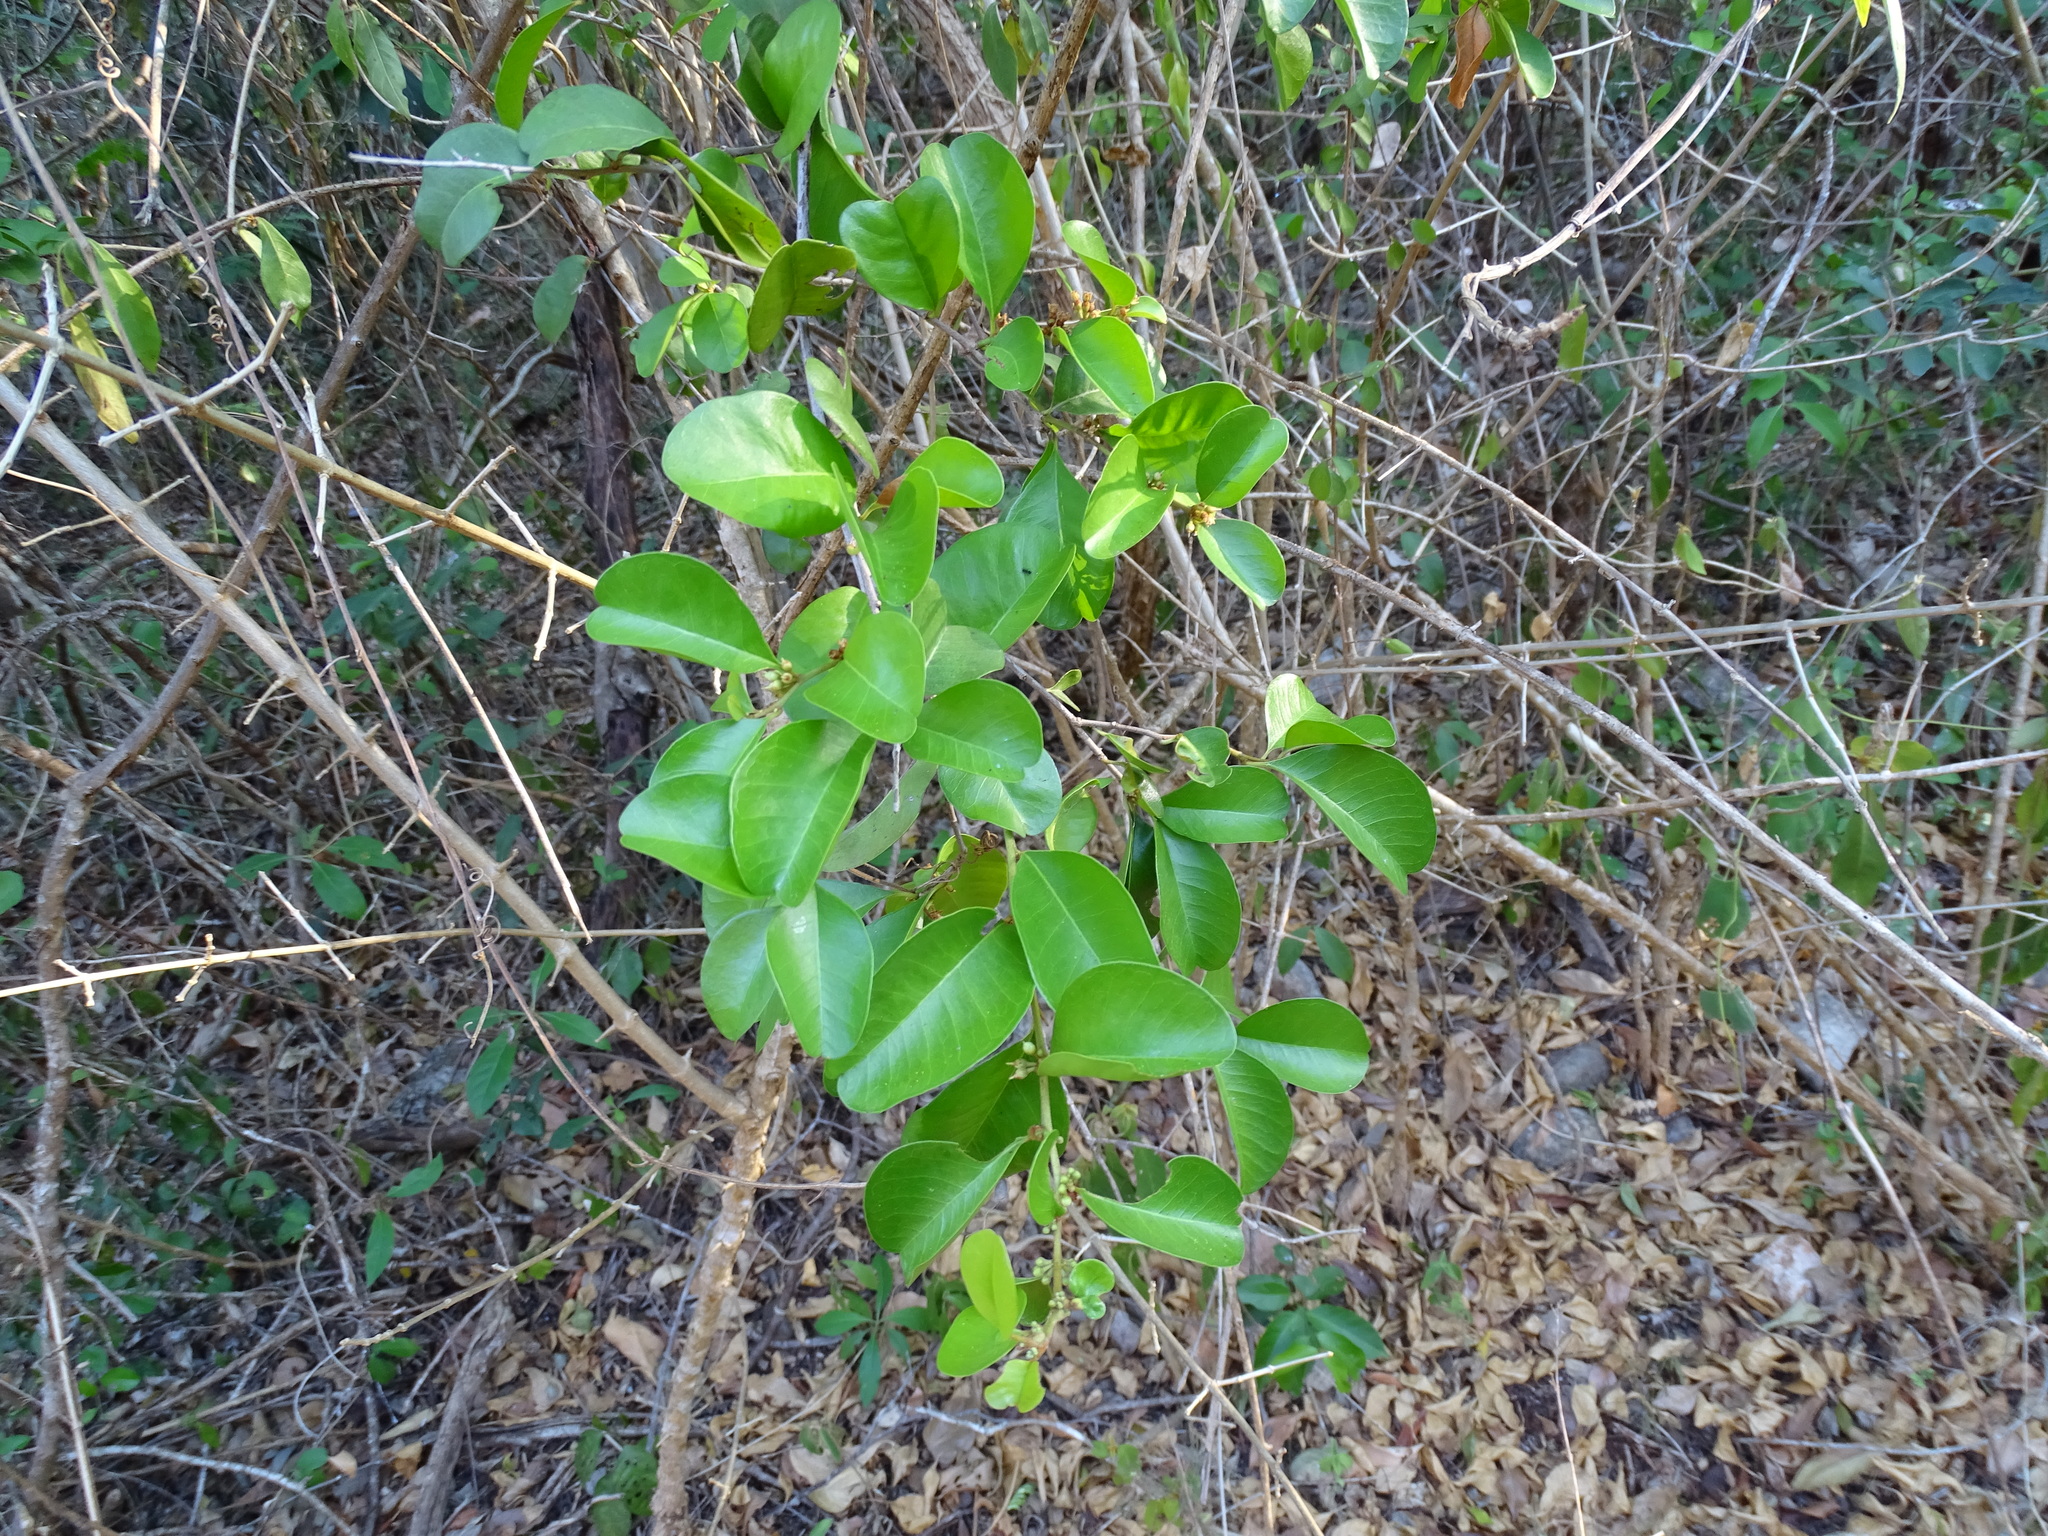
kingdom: Plantae
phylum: Tracheophyta
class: Magnoliopsida
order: Ericales
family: Sapotaceae
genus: Sideroxylon
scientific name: Sideroxylon obtusifolium
